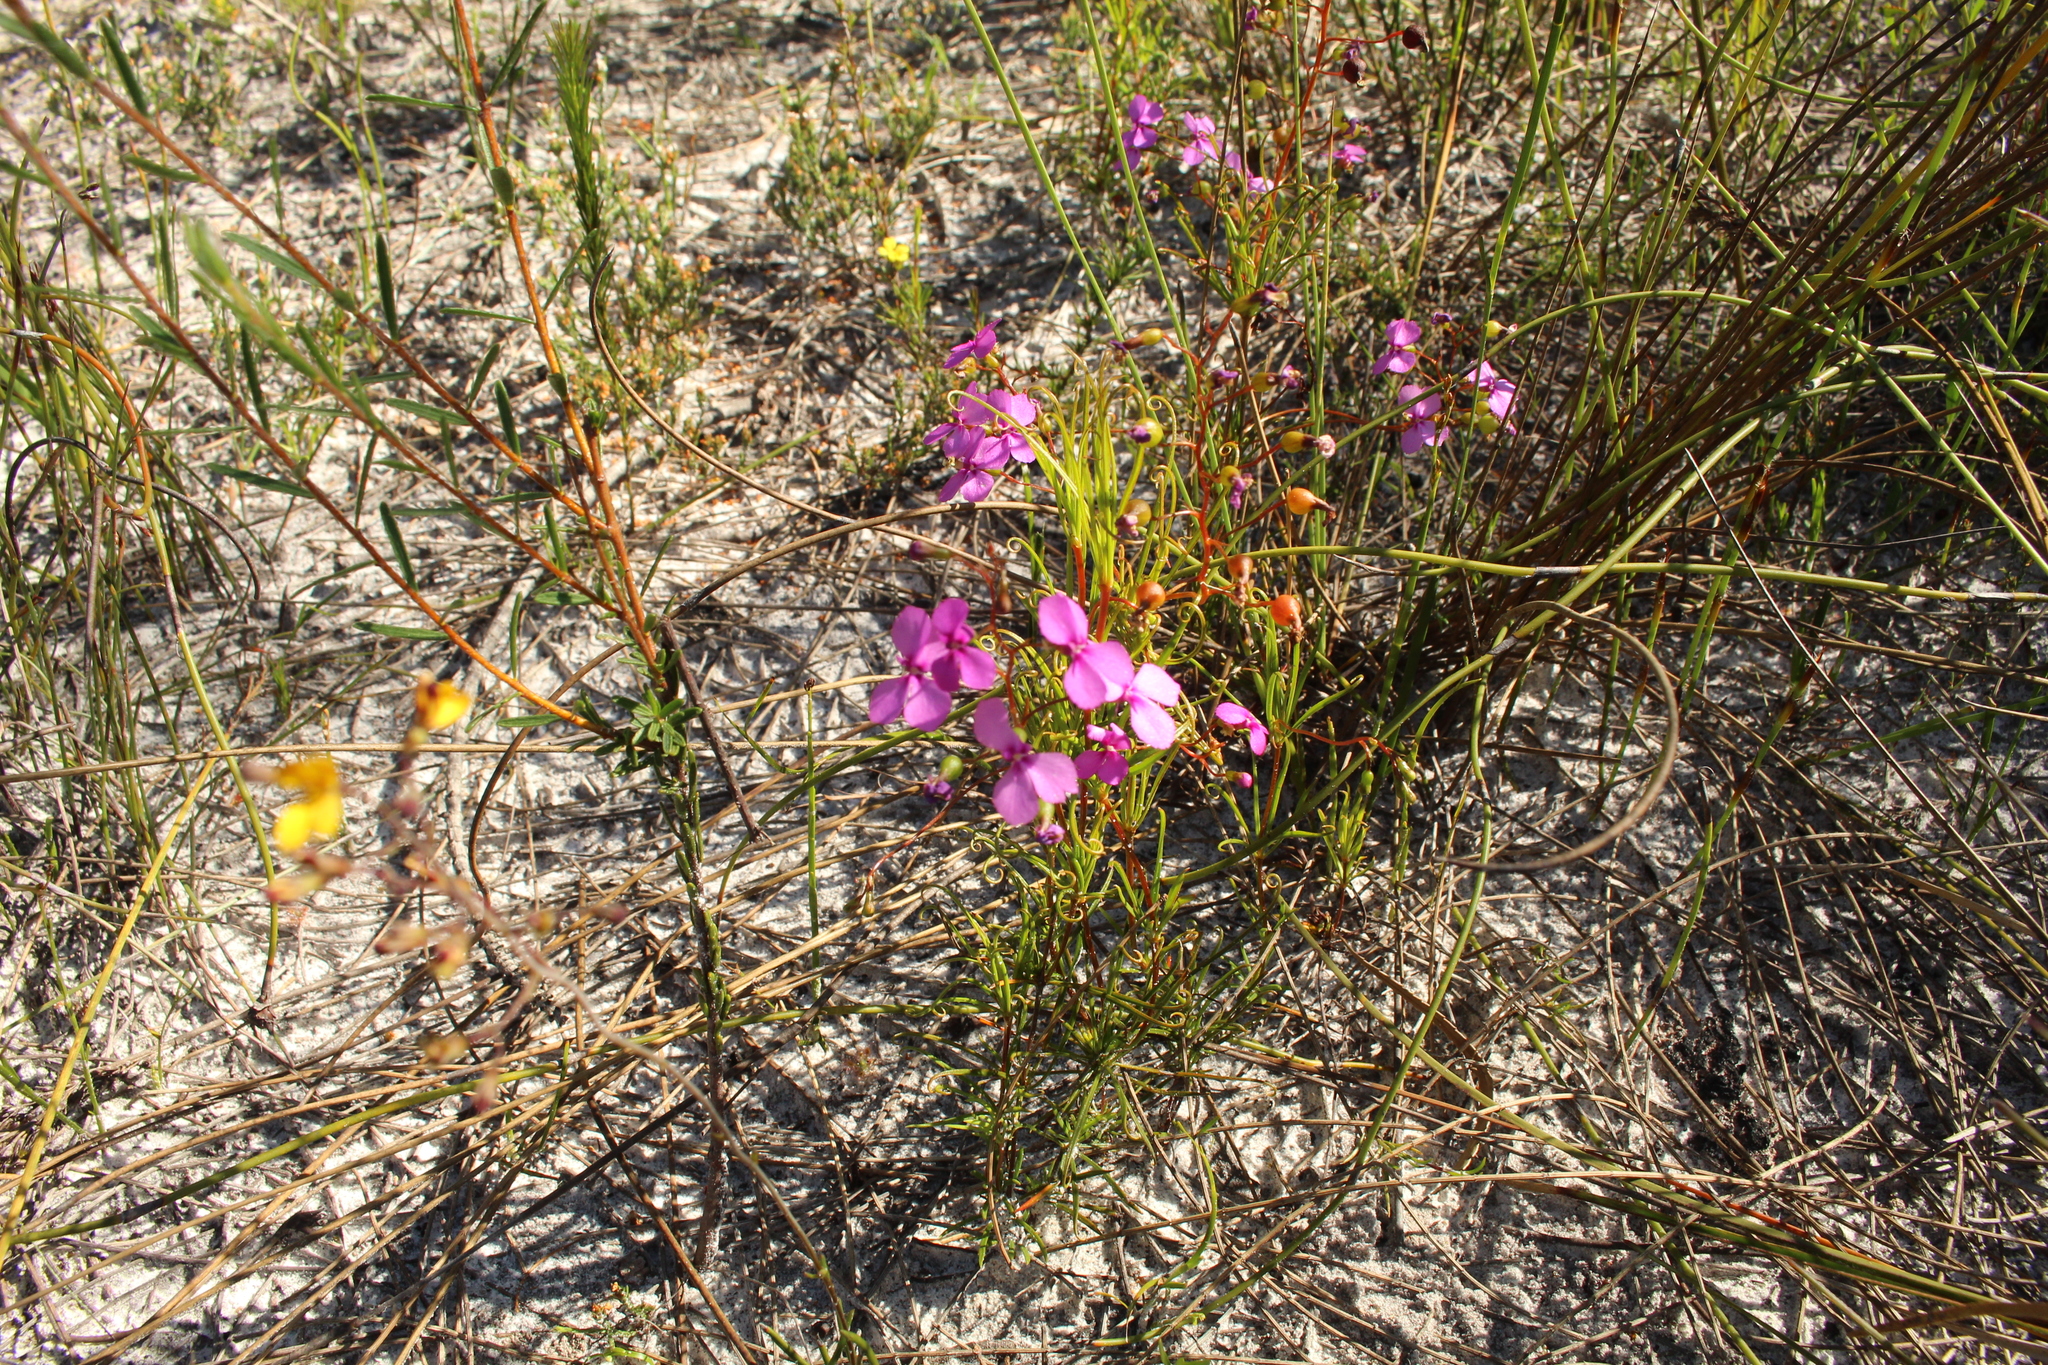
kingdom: Plantae
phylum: Tracheophyta
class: Magnoliopsida
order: Asterales
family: Stylidiaceae
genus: Stylidium
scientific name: Stylidium scandens
